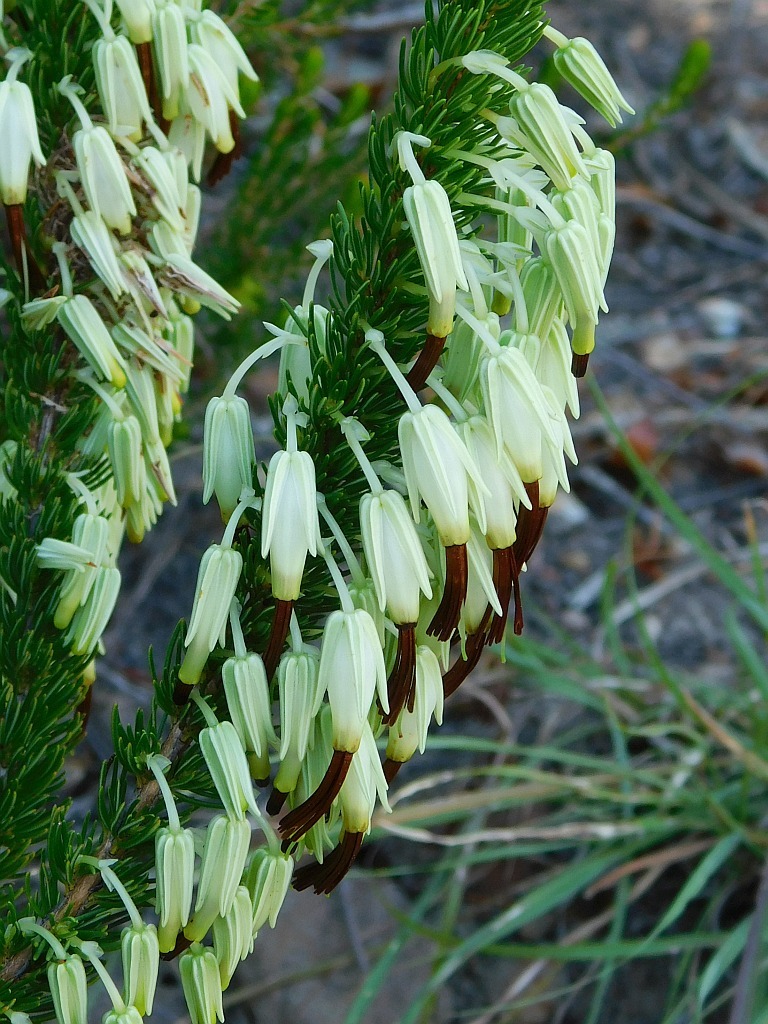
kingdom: Plantae
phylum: Tracheophyta
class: Magnoliopsida
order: Ericales
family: Ericaceae
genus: Erica
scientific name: Erica plukenetii
